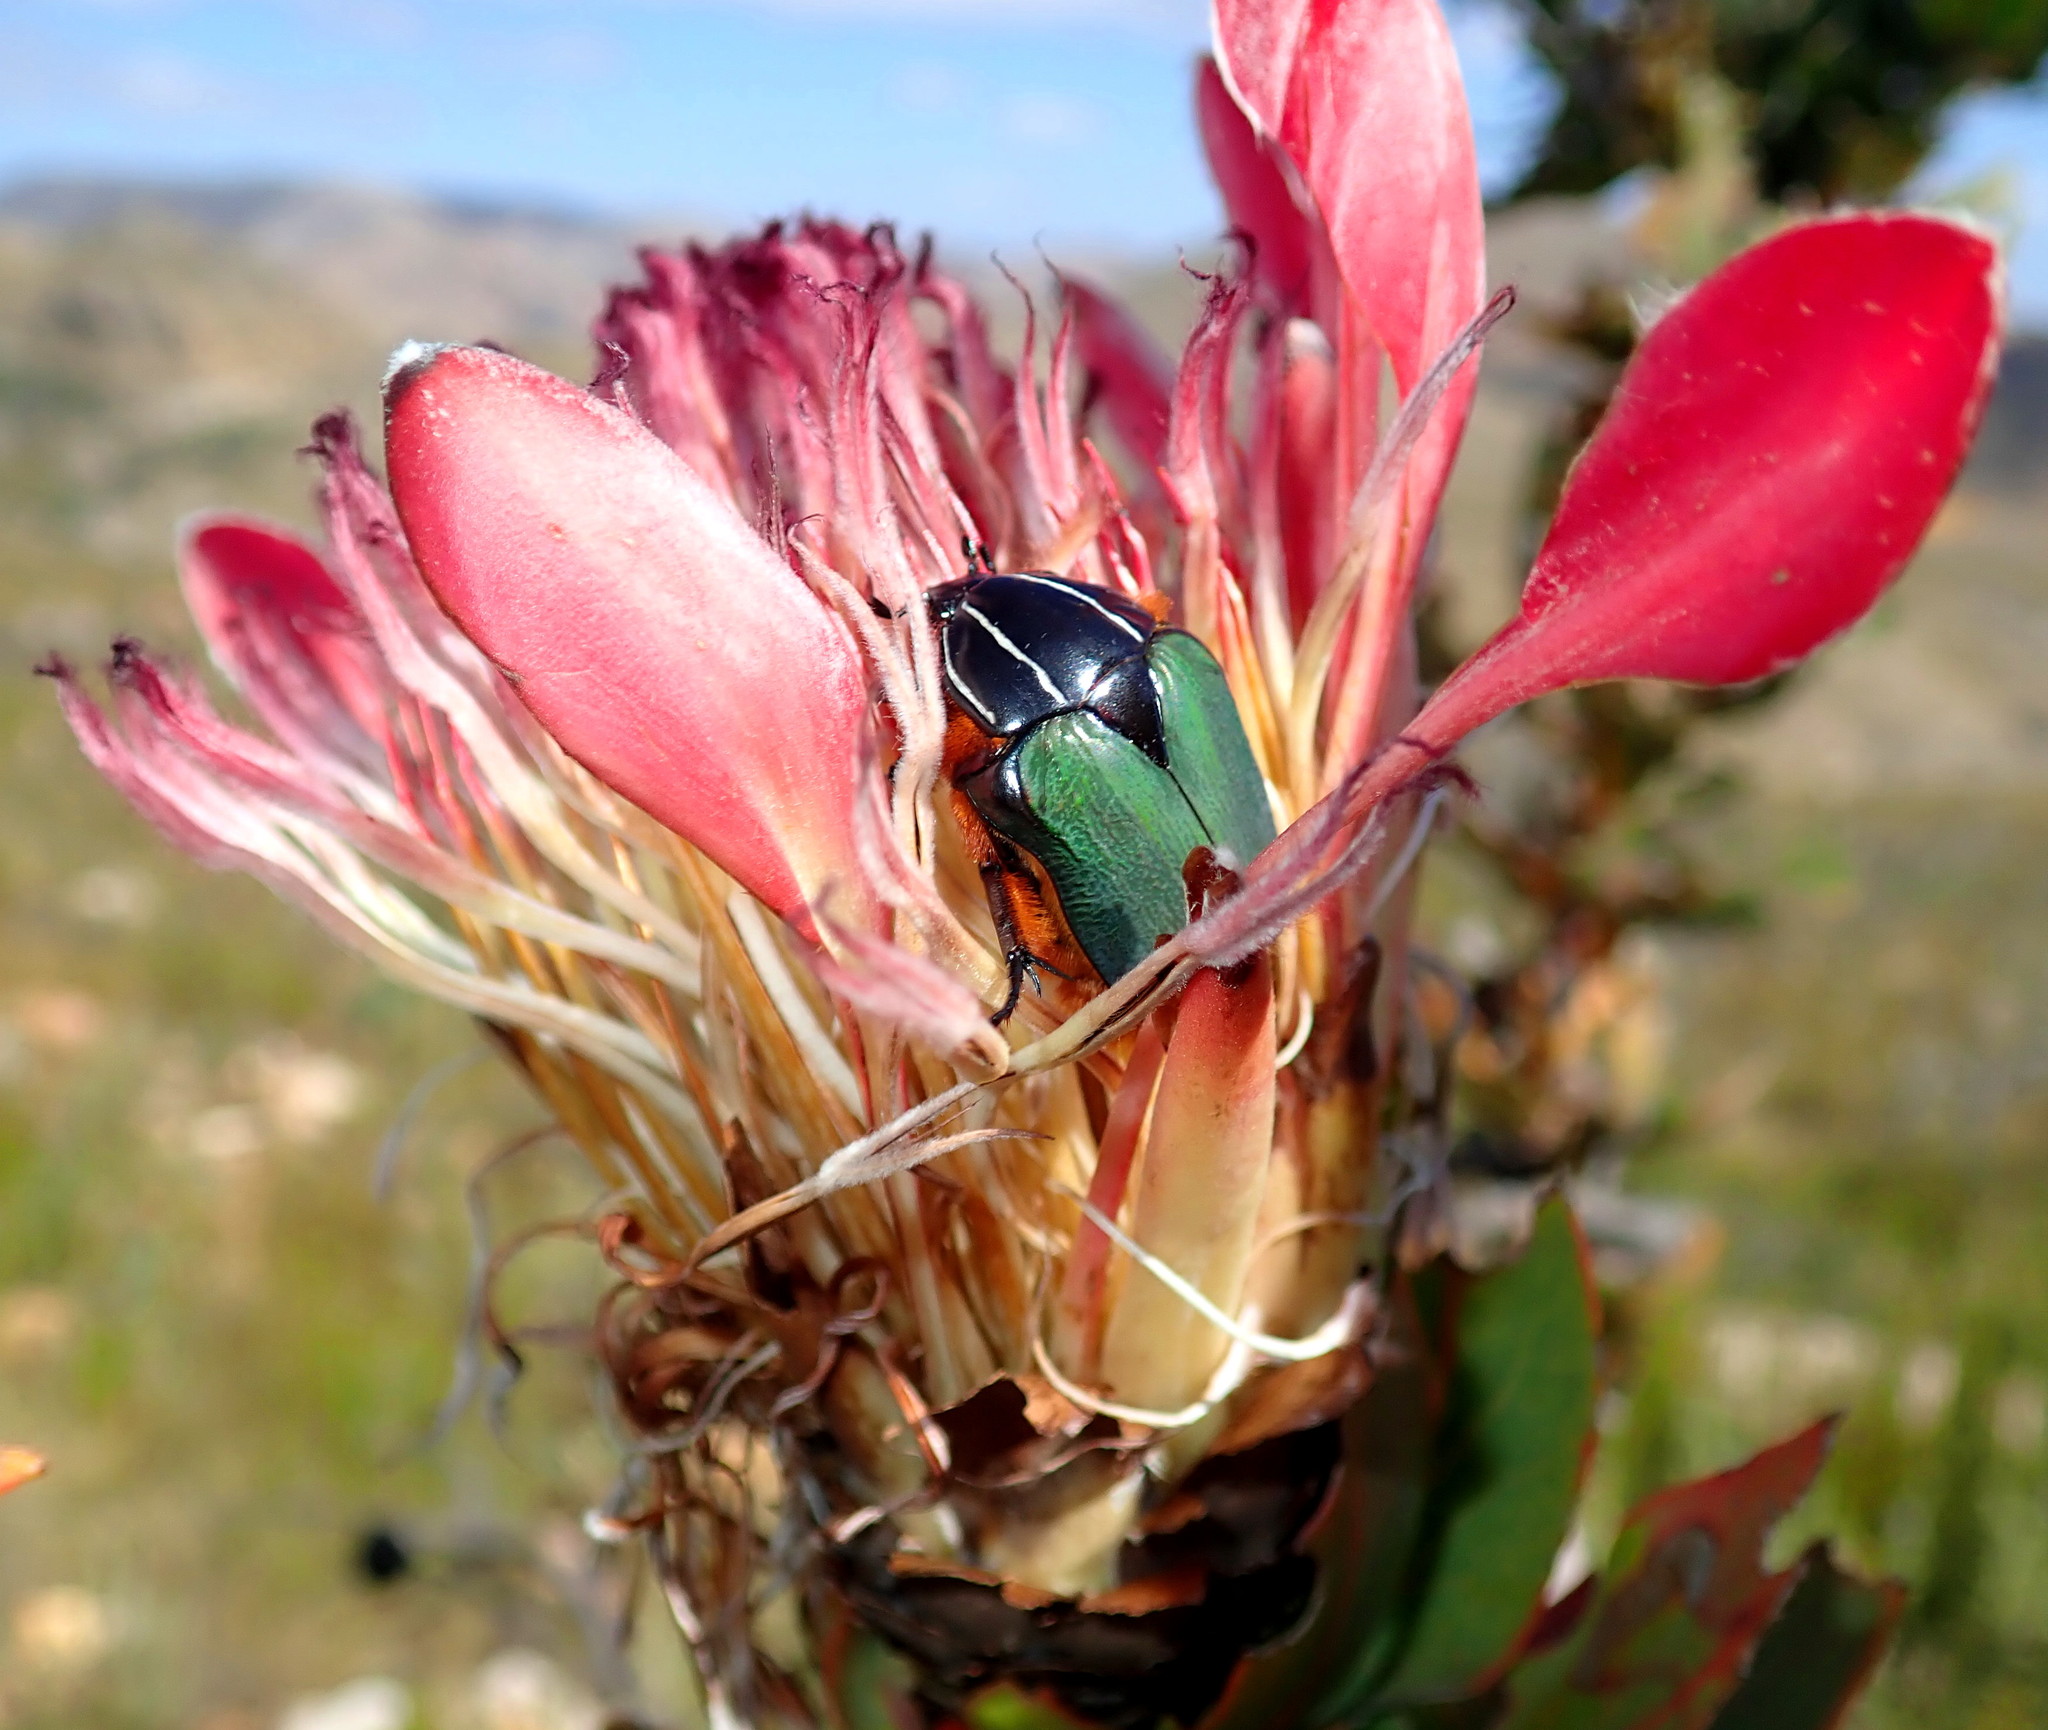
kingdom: Animalia
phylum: Arthropoda
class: Insecta
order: Coleoptera
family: Scarabaeidae
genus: Trichostetha
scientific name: Trichostetha fascicularis
